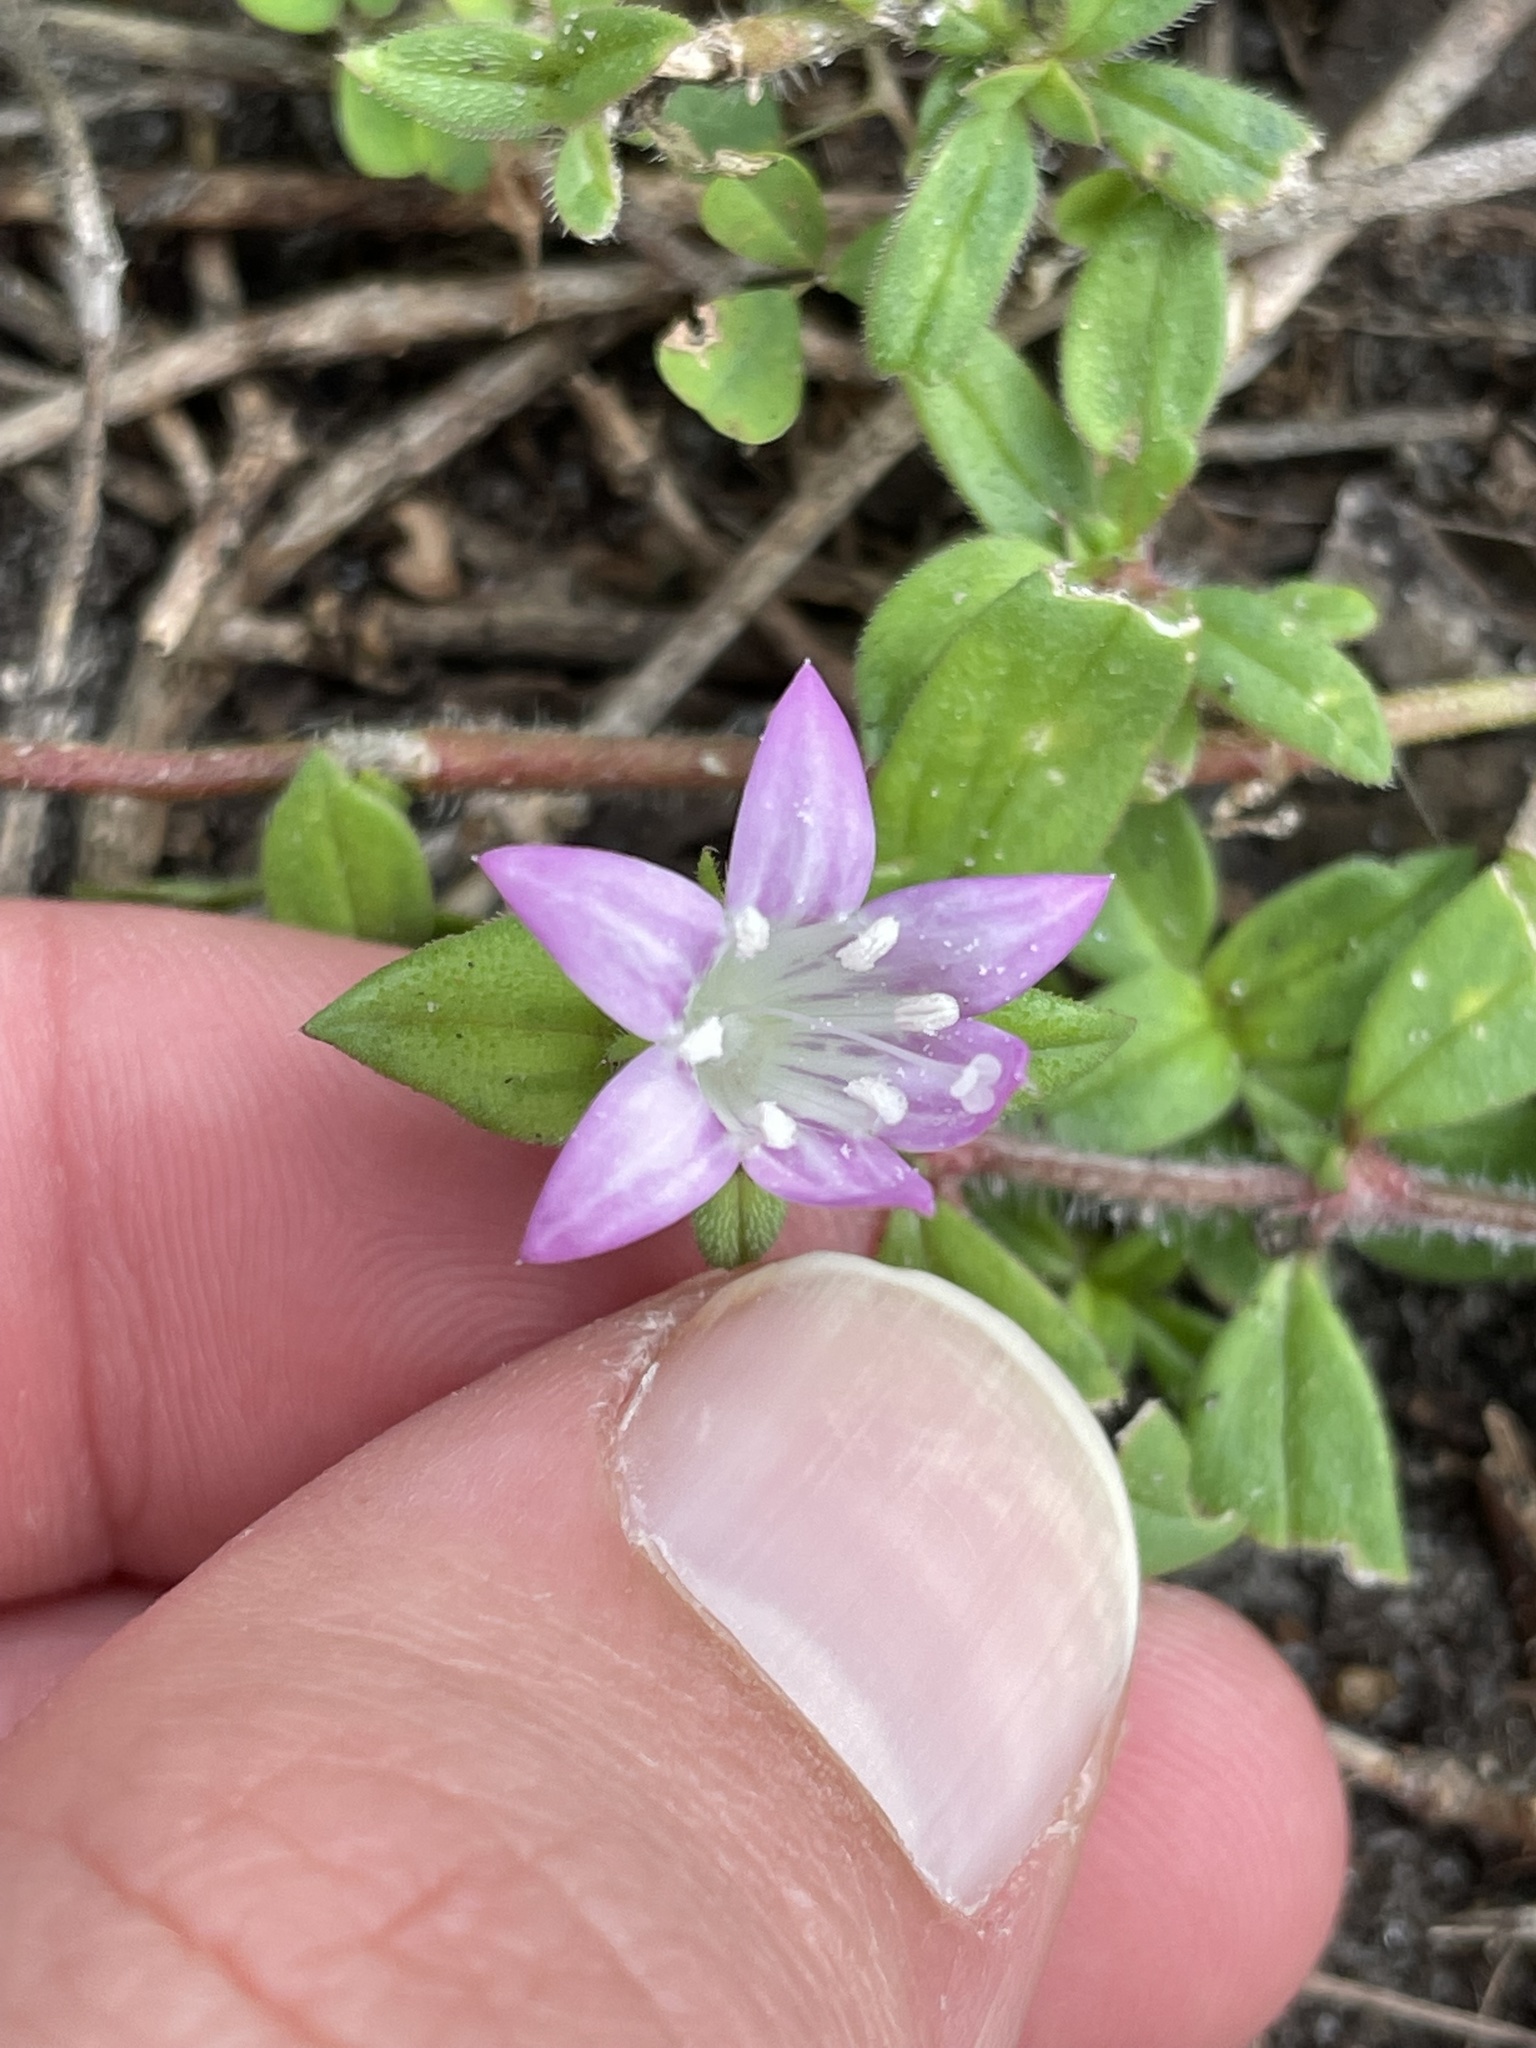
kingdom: Plantae
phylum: Tracheophyta
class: Magnoliopsida
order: Gentianales
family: Rubiaceae
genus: Richardia
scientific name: Richardia grandiflora
